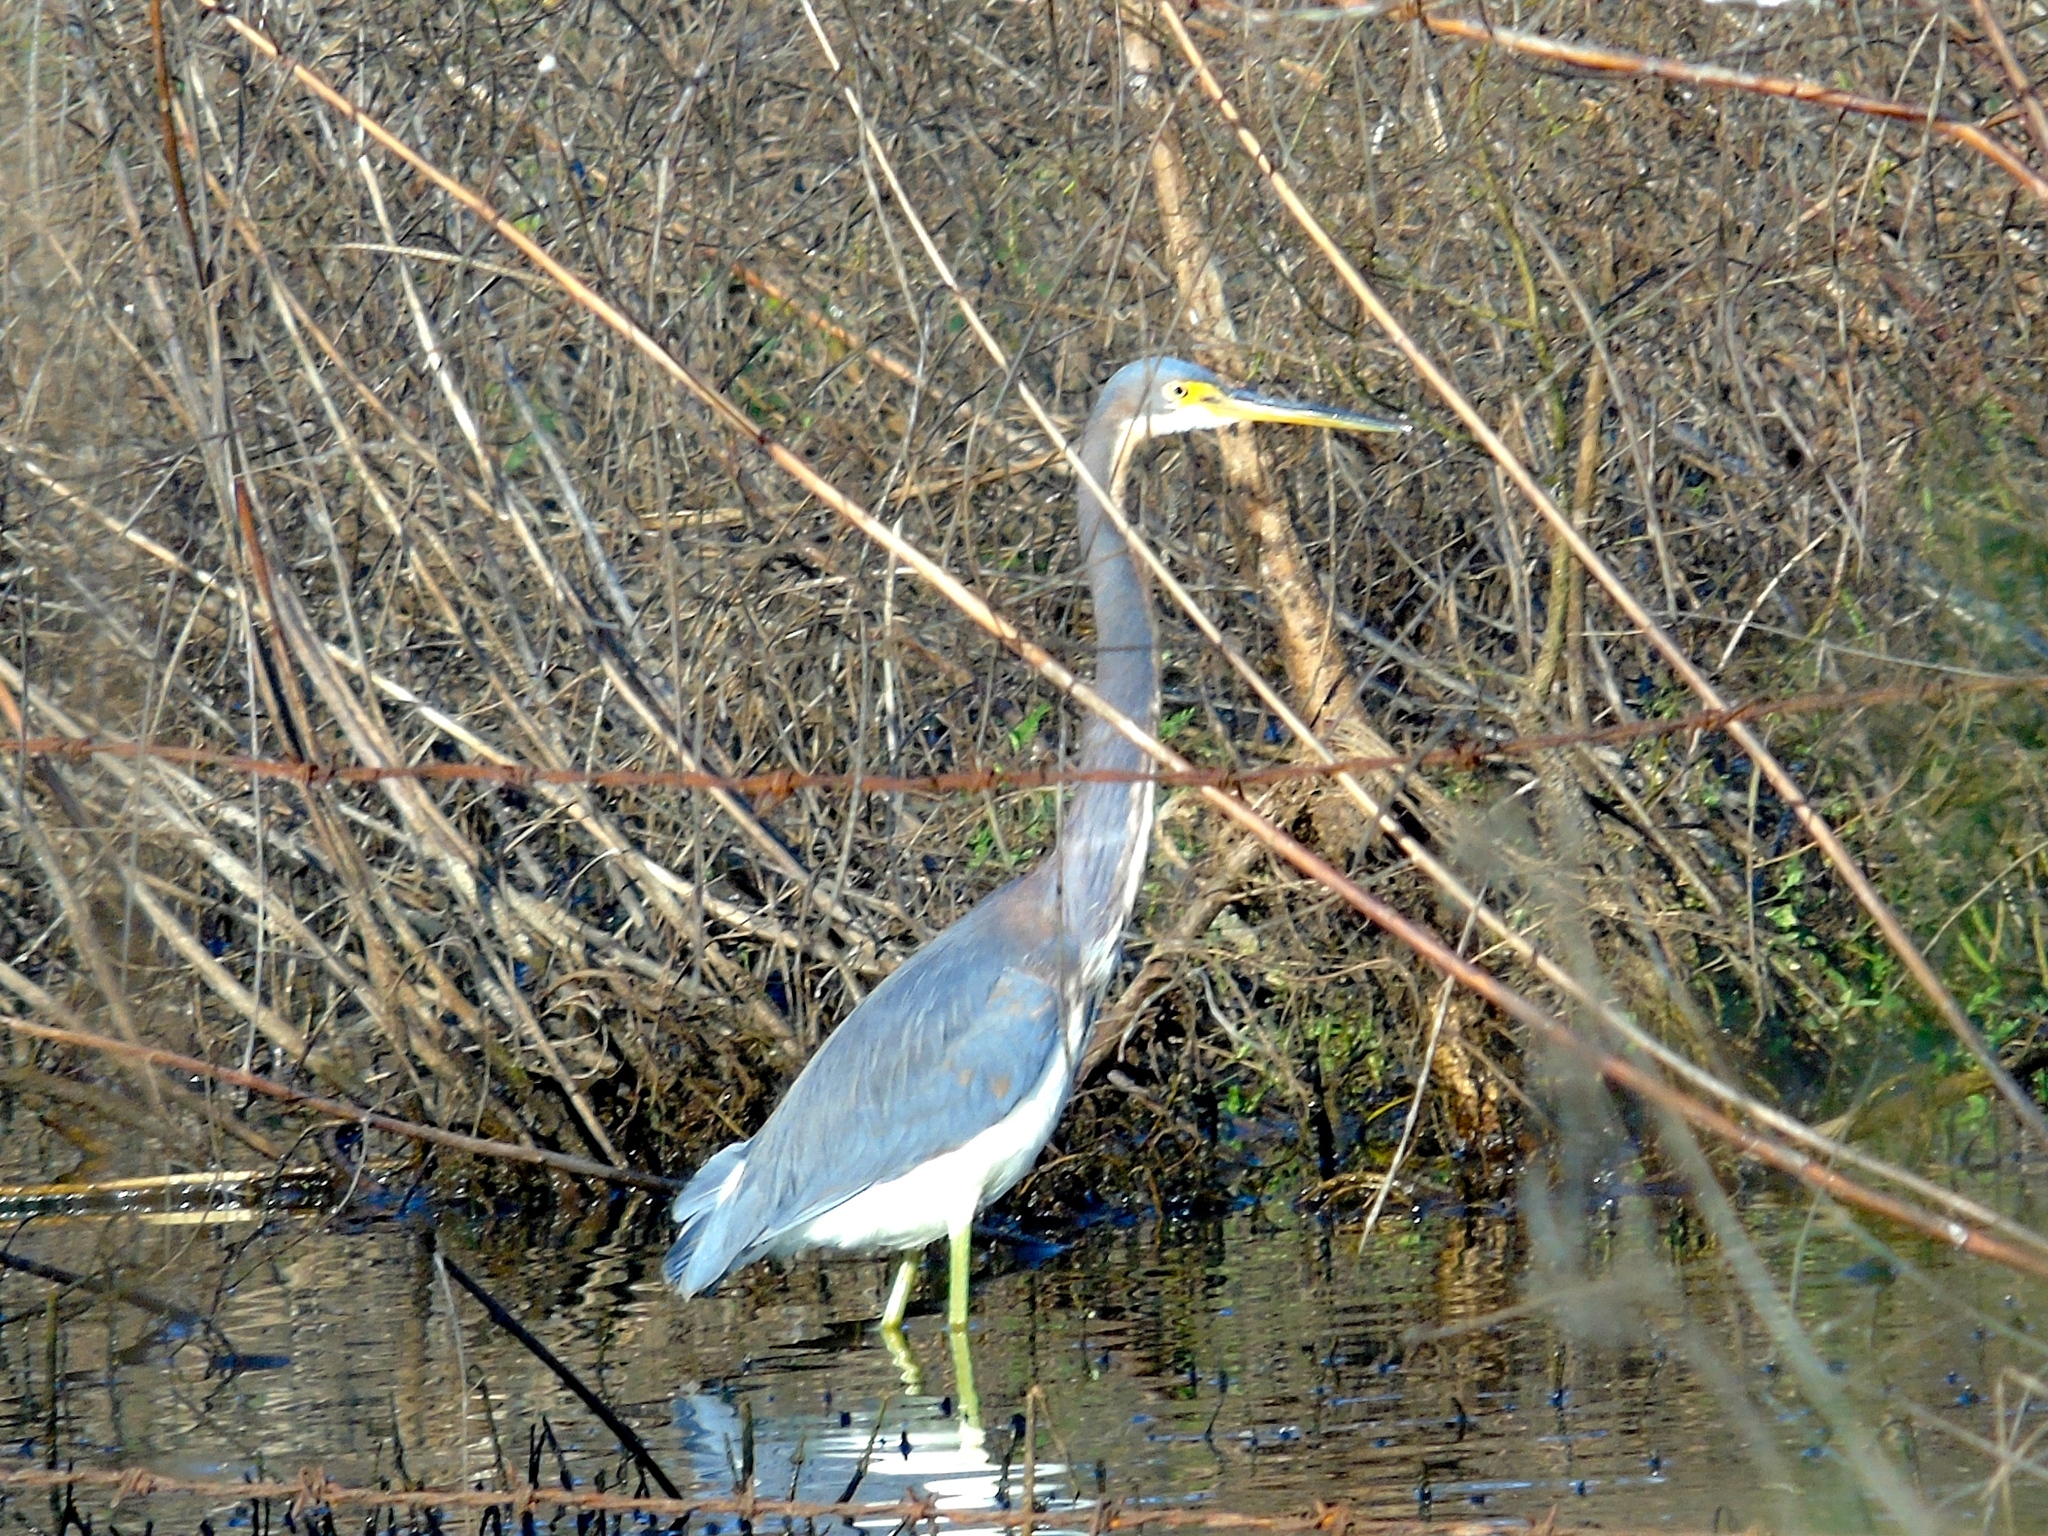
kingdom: Animalia
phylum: Chordata
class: Aves
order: Pelecaniformes
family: Ardeidae
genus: Egretta
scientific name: Egretta tricolor
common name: Tricolored heron
